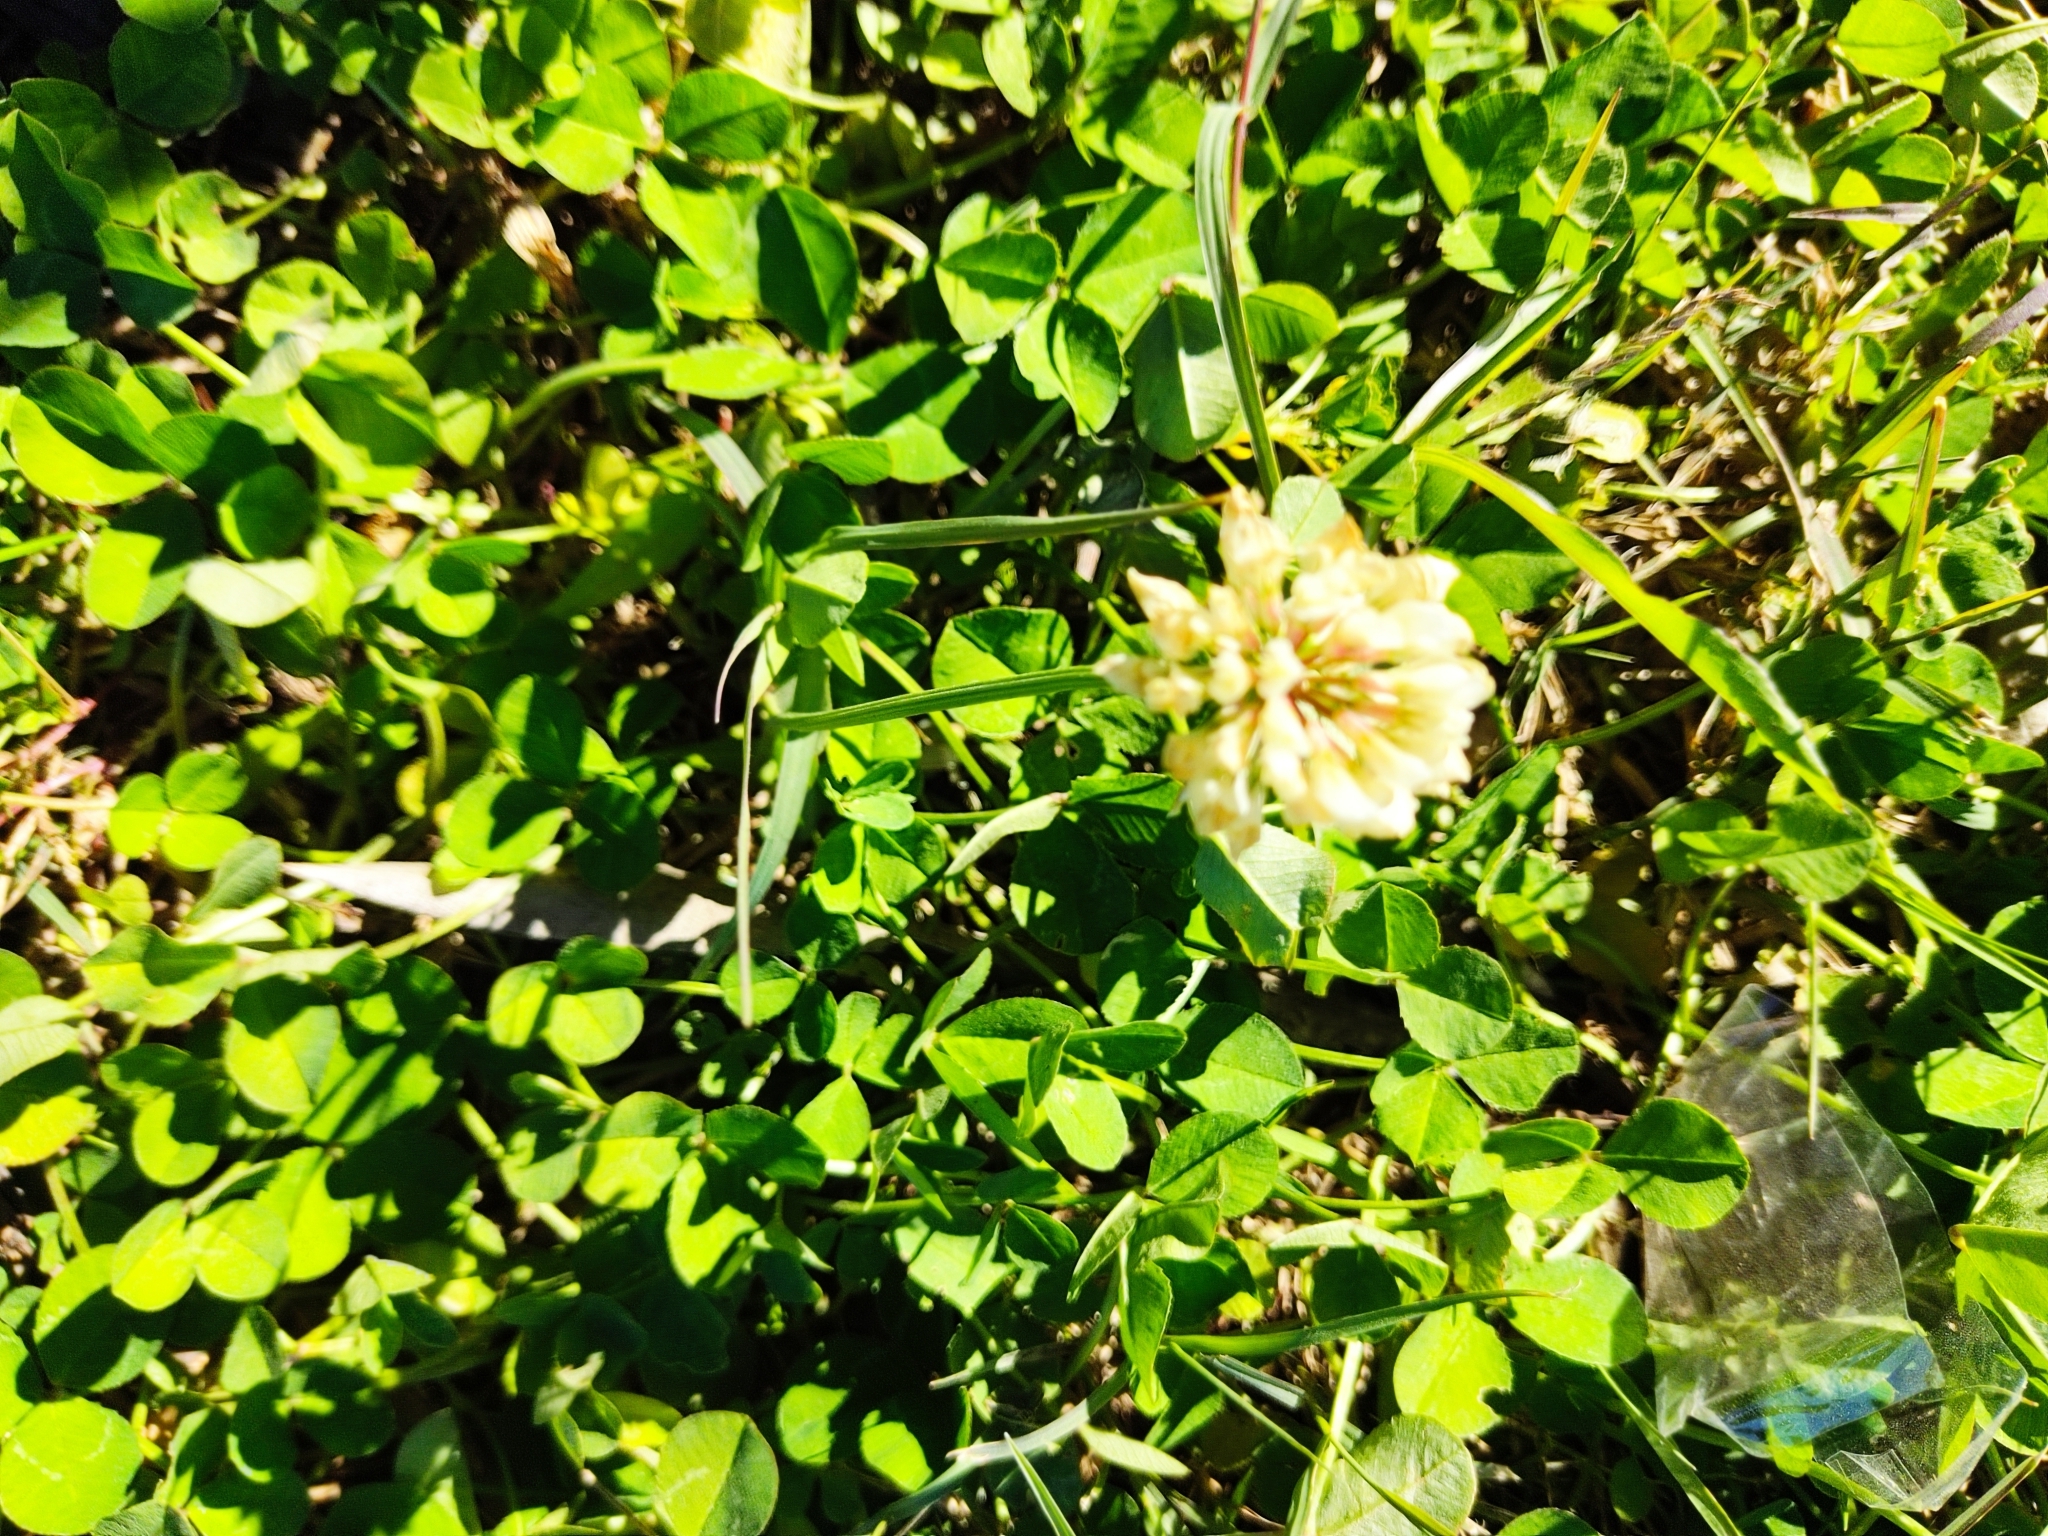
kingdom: Plantae
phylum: Tracheophyta
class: Magnoliopsida
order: Fabales
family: Fabaceae
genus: Trifolium
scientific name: Trifolium repens
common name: White clover
